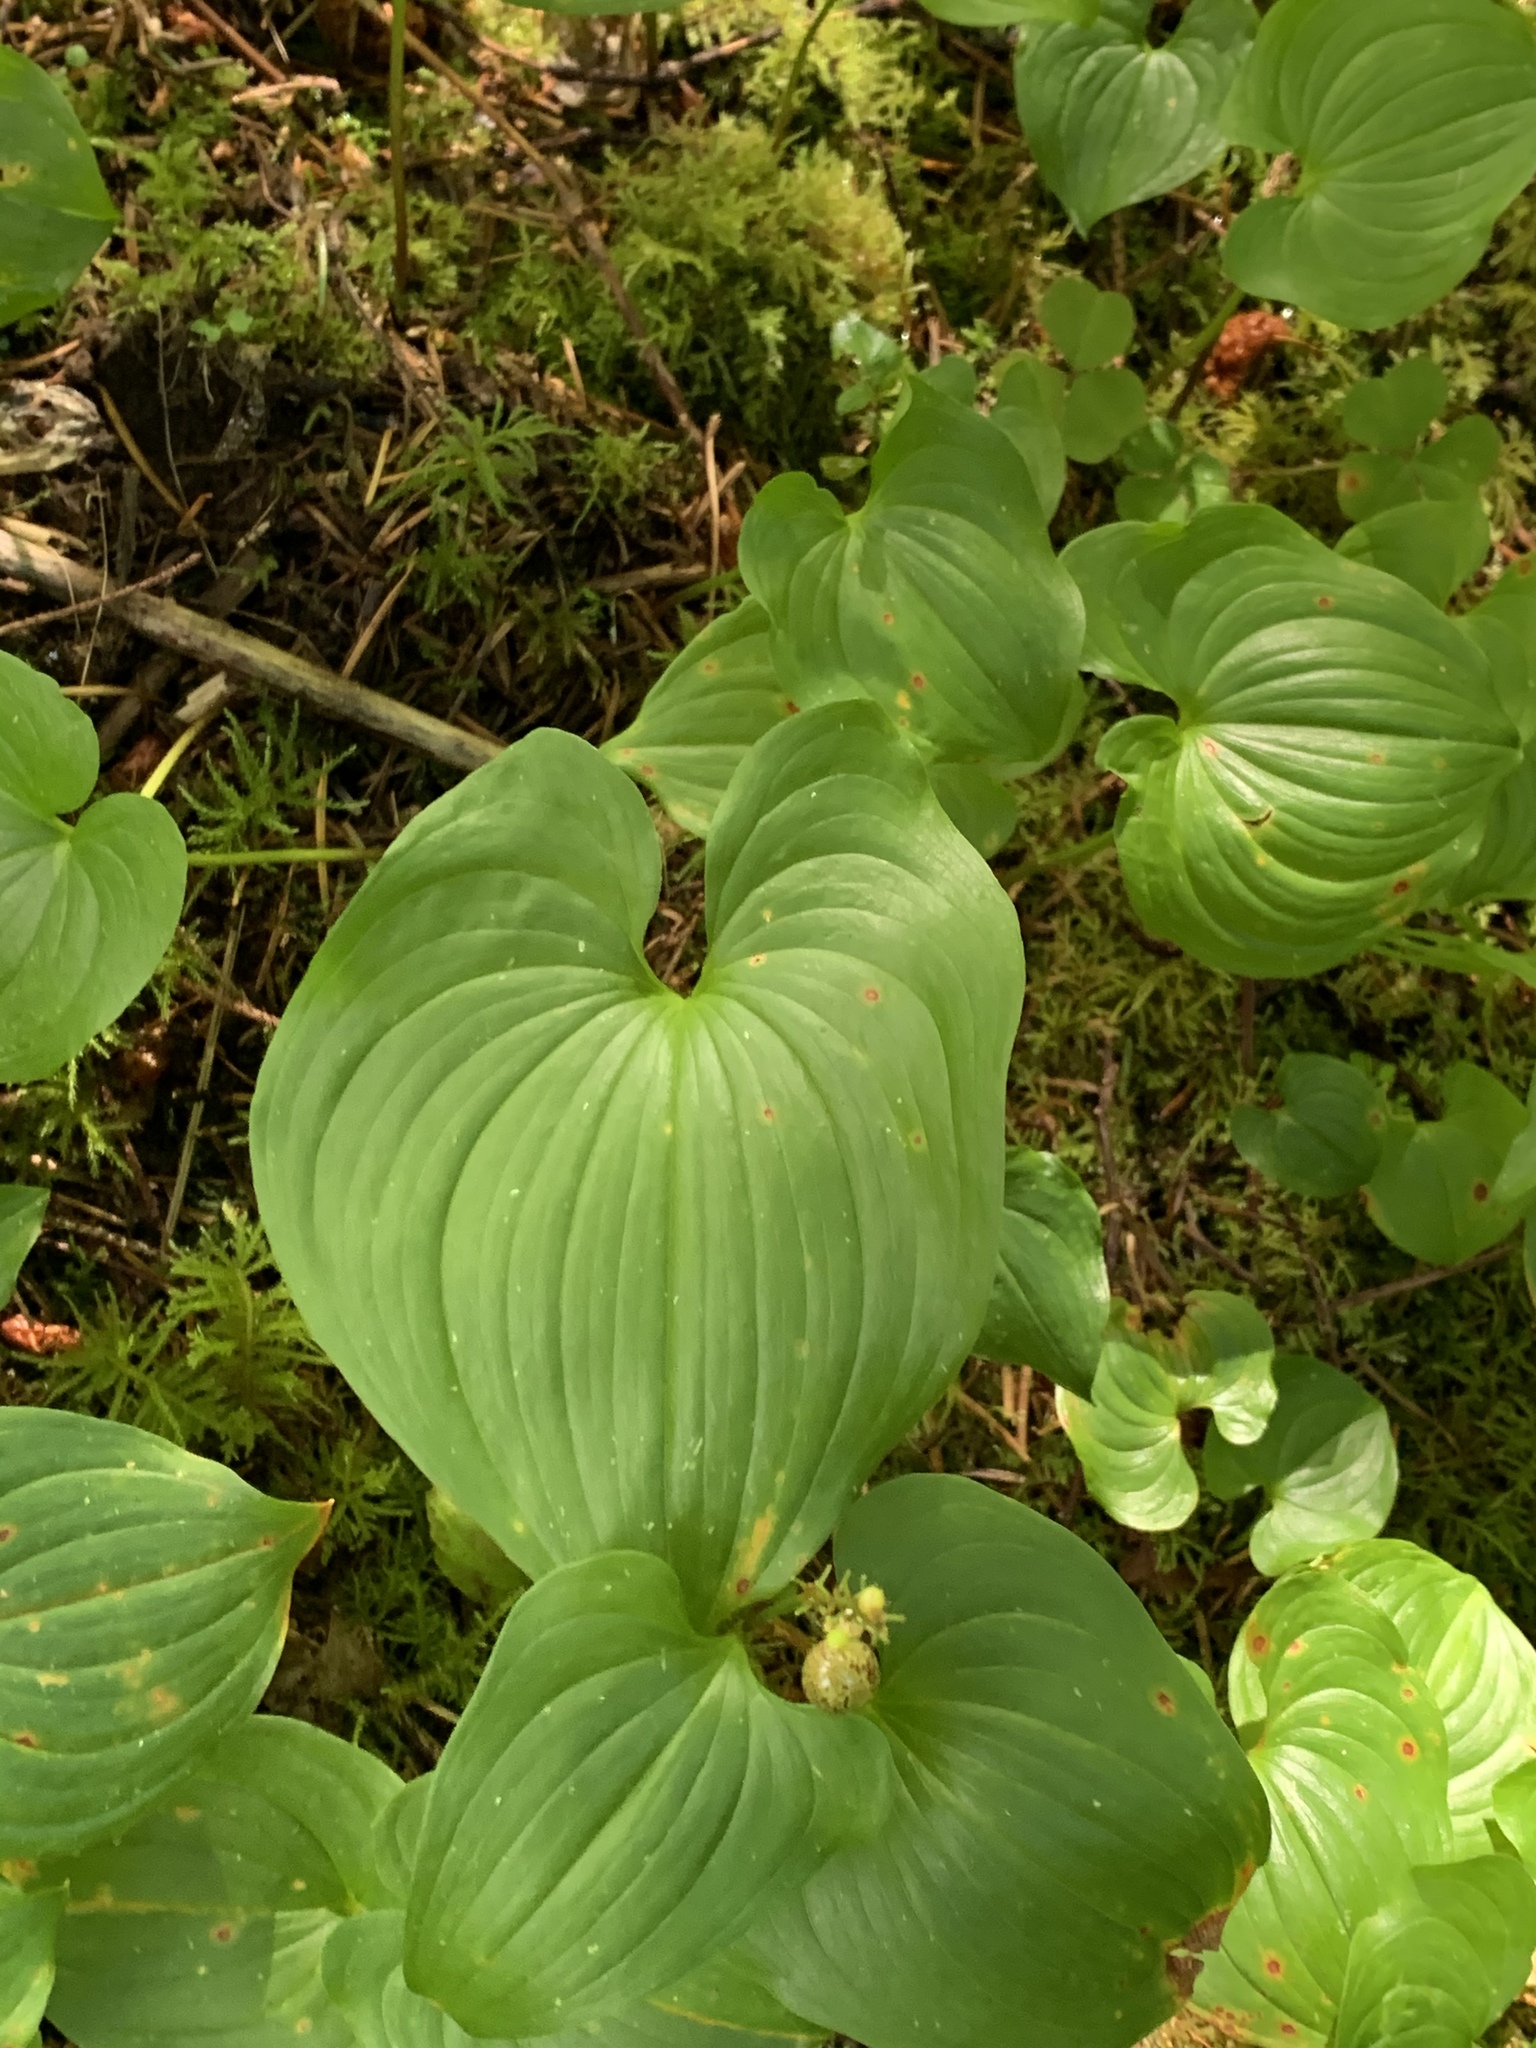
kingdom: Plantae
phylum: Tracheophyta
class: Liliopsida
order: Asparagales
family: Asparagaceae
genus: Maianthemum
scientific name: Maianthemum dilatatum
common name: False lily-of-the-valley
